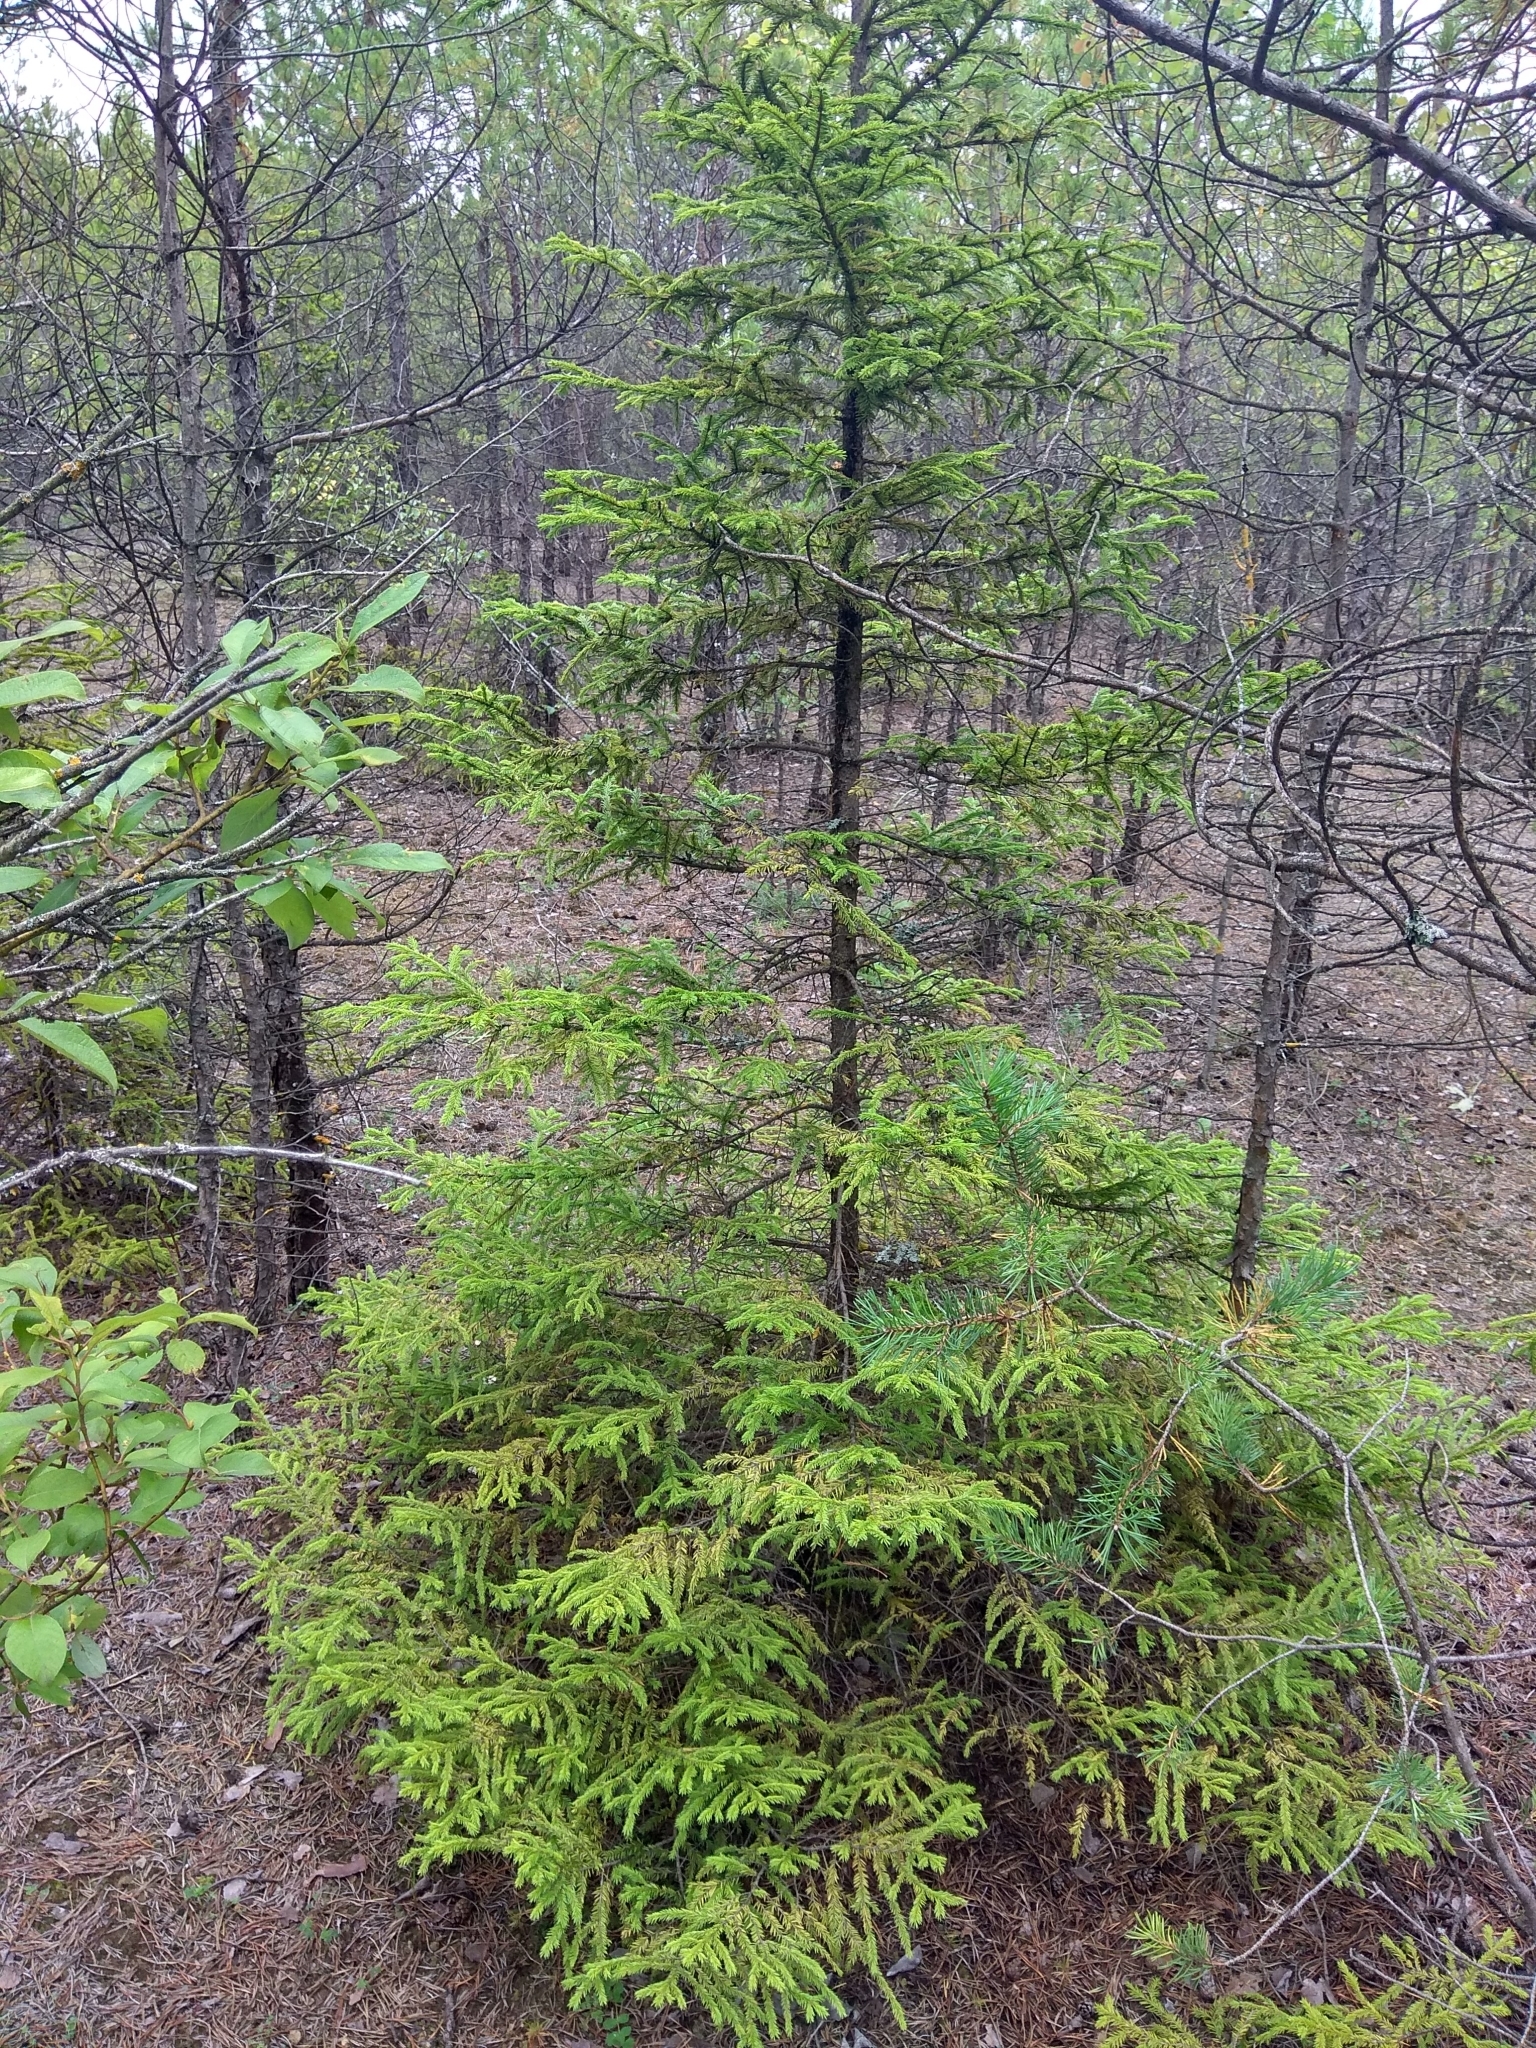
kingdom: Plantae
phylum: Tracheophyta
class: Pinopsida
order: Pinales
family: Pinaceae
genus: Picea
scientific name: Picea abies
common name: Norway spruce
